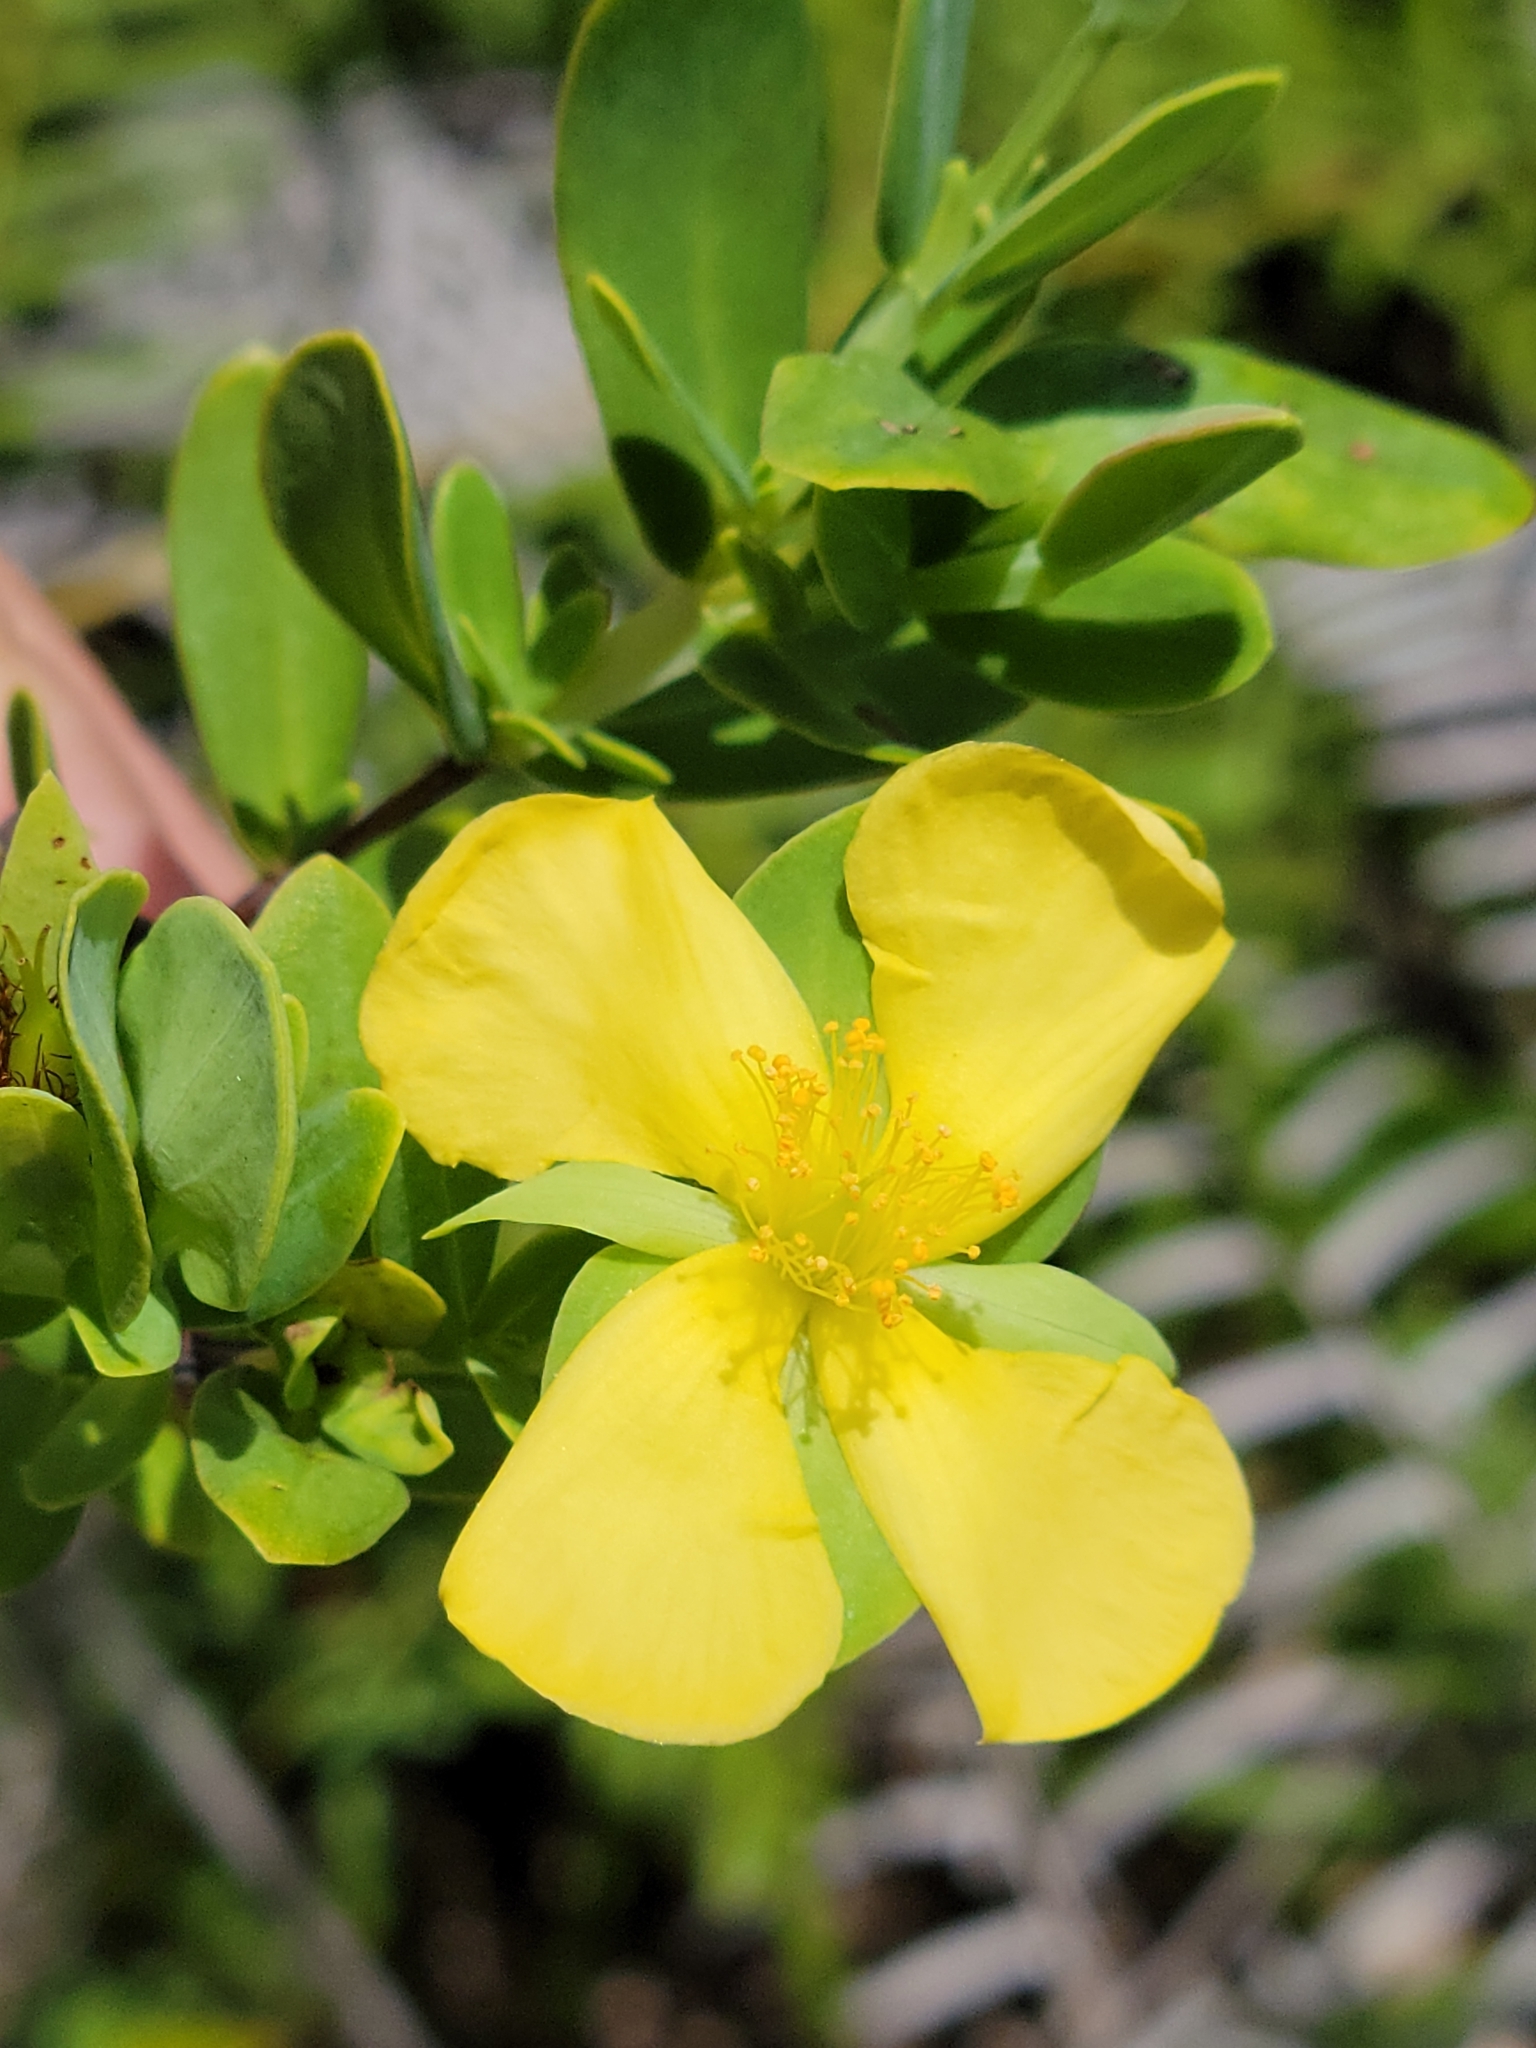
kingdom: Plantae
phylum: Tracheophyta
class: Magnoliopsida
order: Malpighiales
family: Hypericaceae
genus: Hypericum
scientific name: Hypericum crux-andreae
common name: St.-peter's-wort
